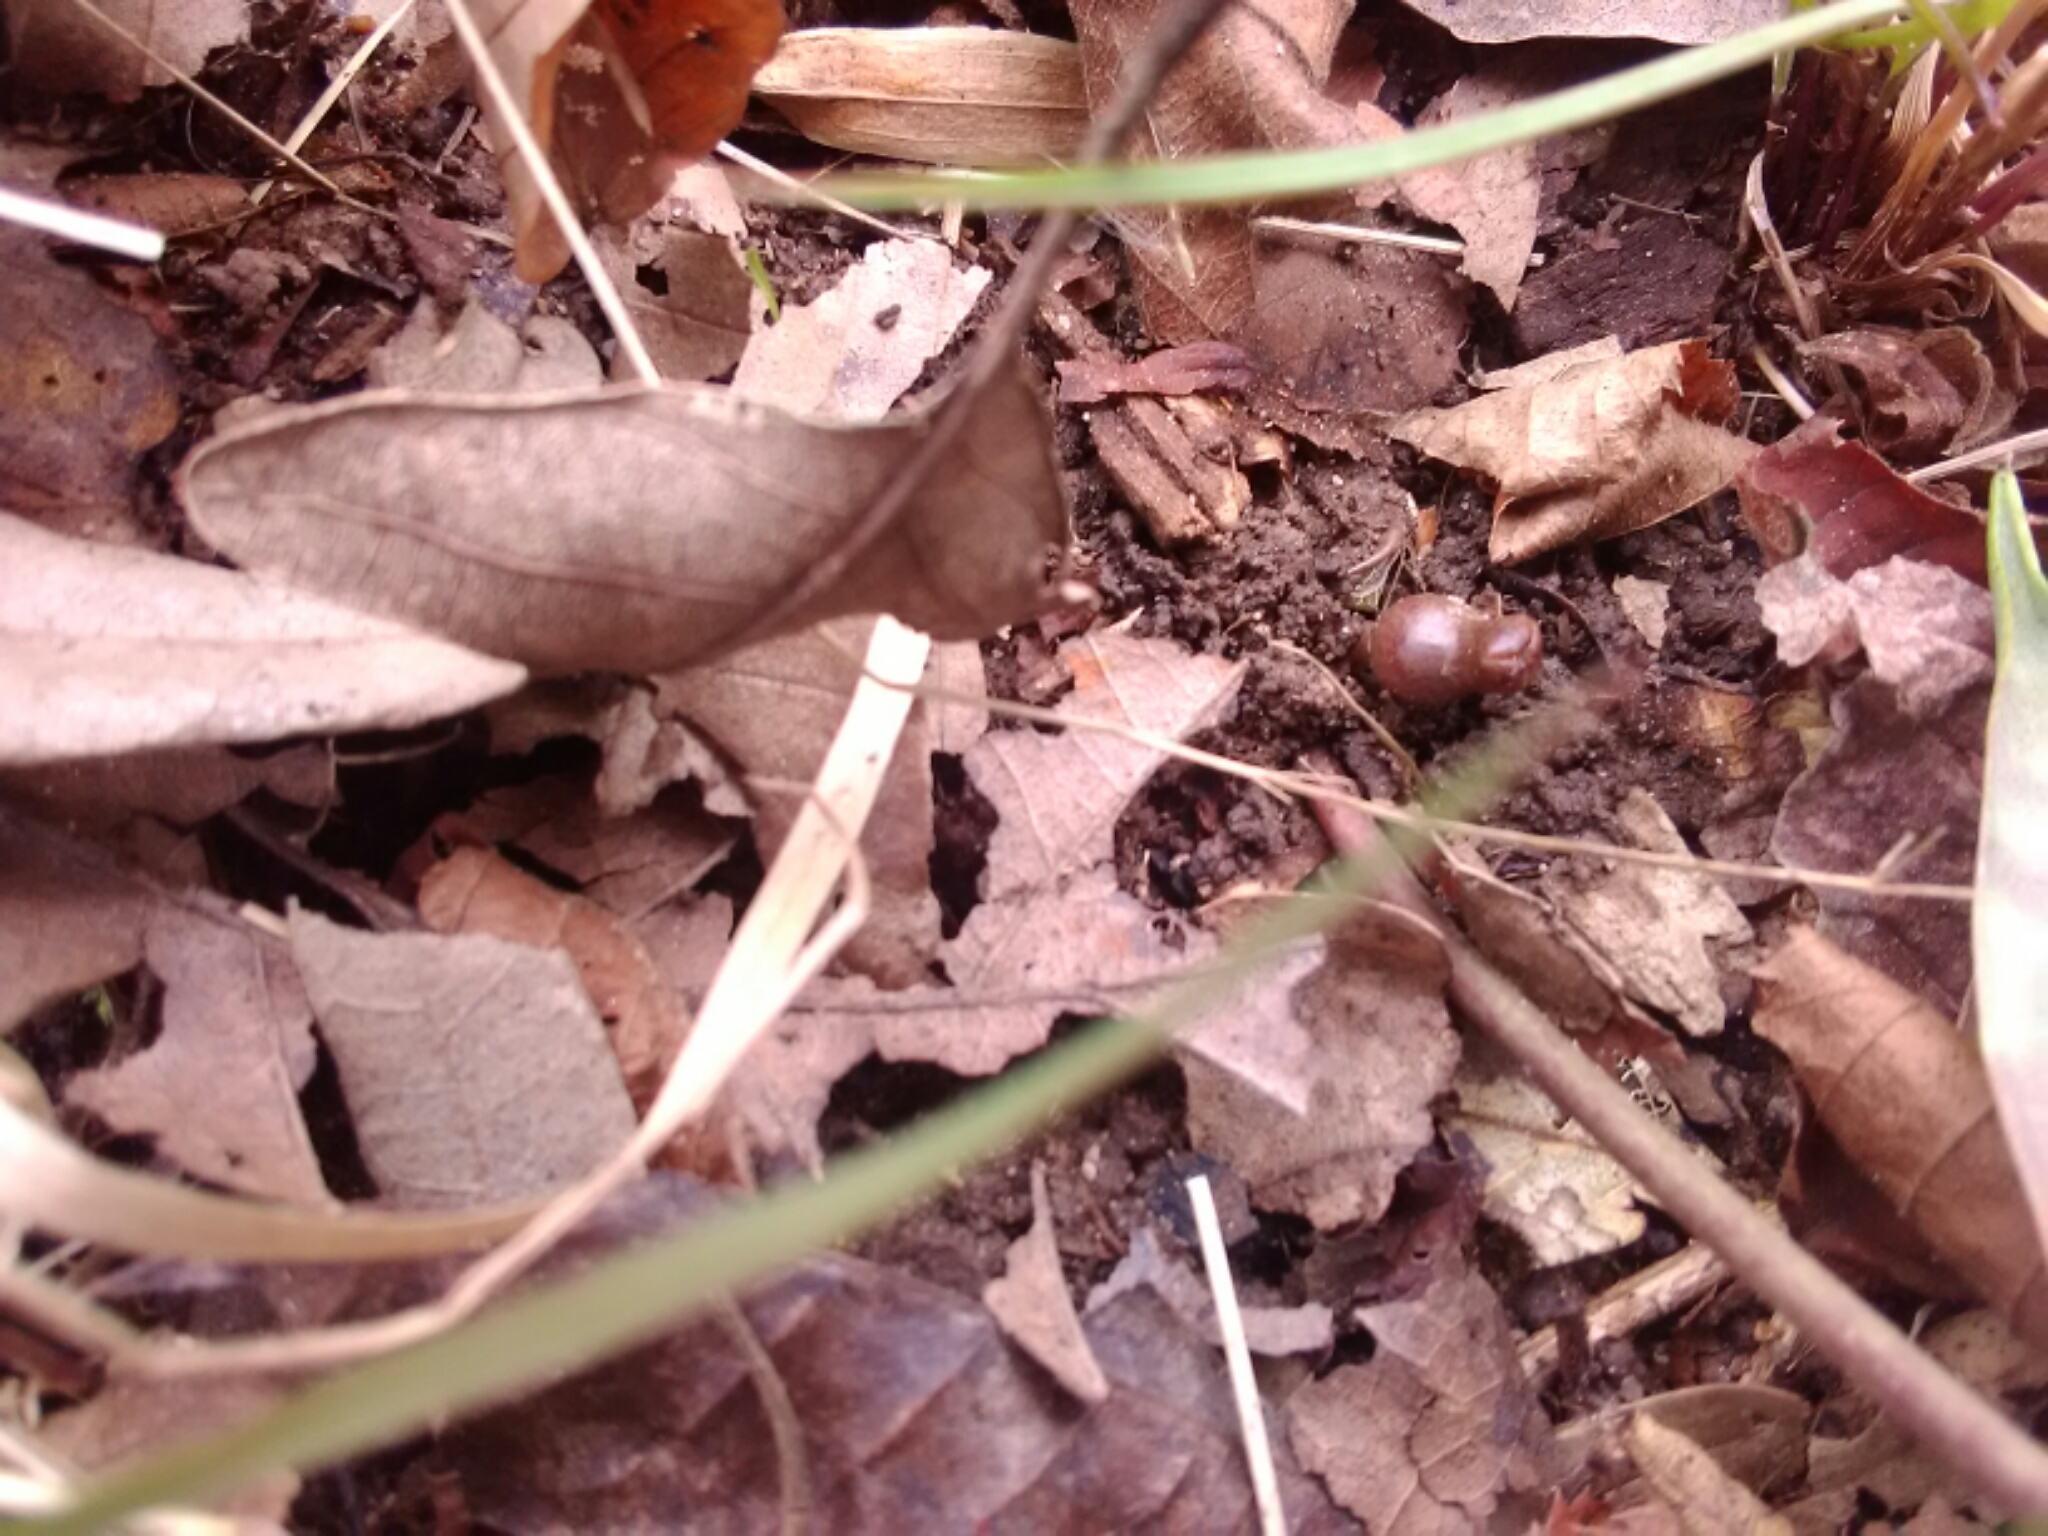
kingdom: Plantae
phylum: Tracheophyta
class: Magnoliopsida
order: Piperales
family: Aristolochiaceae
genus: Hexastylis
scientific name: Hexastylis arifolia
